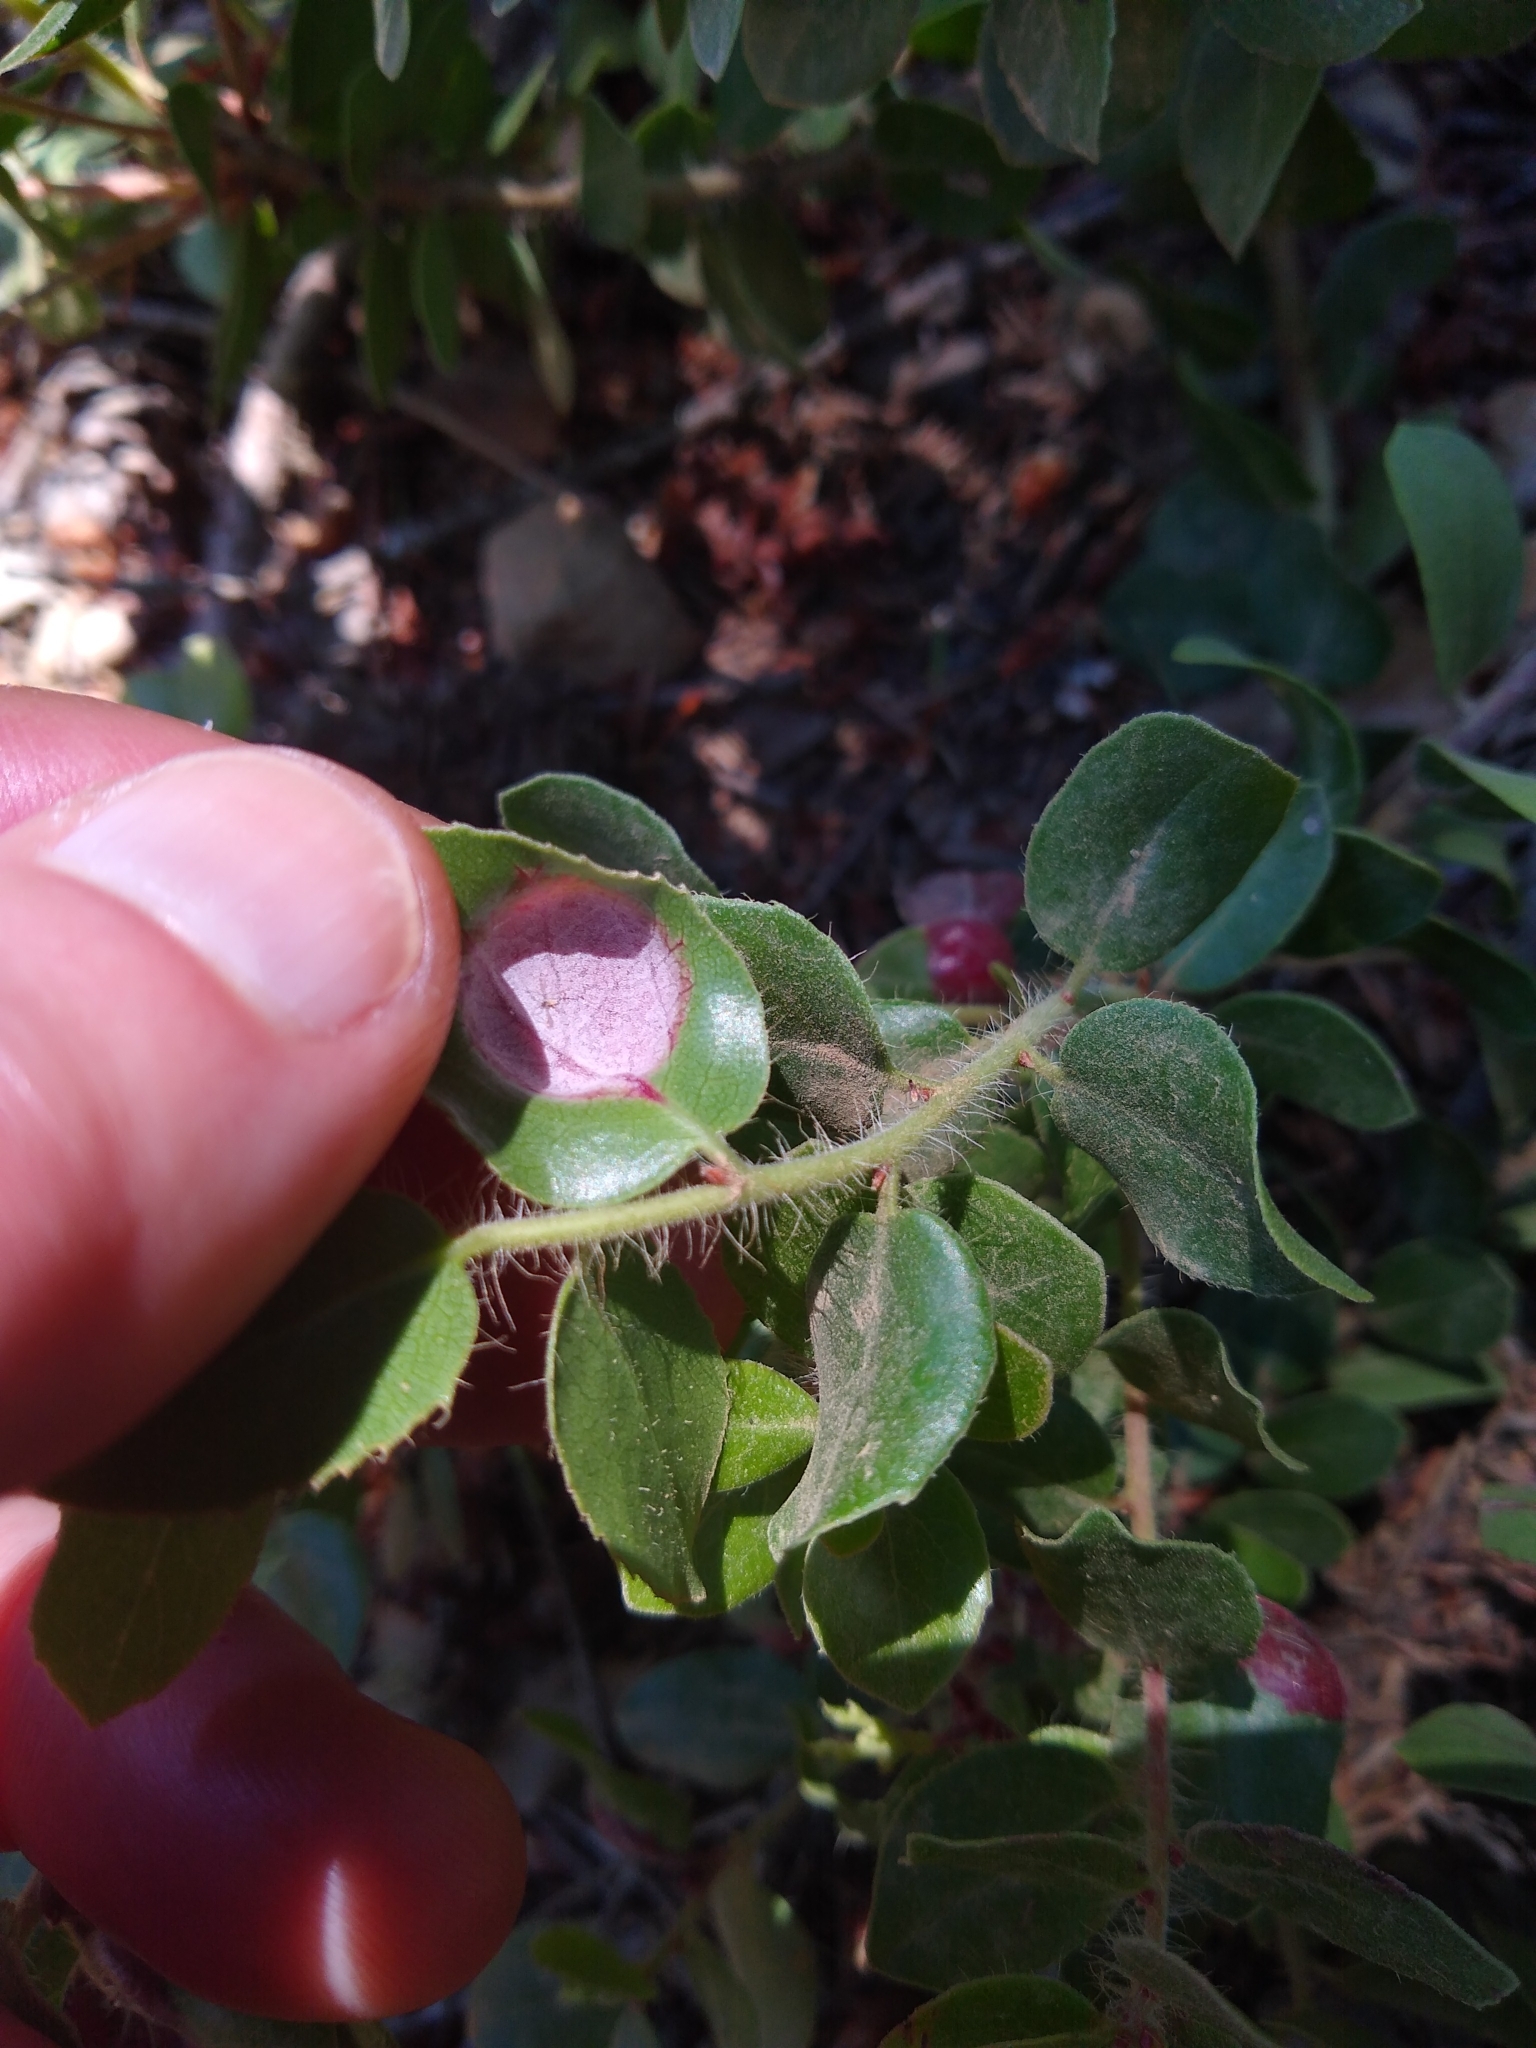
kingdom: Fungi
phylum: Basidiomycota
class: Exobasidiomycetes
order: Exobasidiales
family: Exobasidiaceae
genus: Exobasidium
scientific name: Exobasidium arctostaphyli
